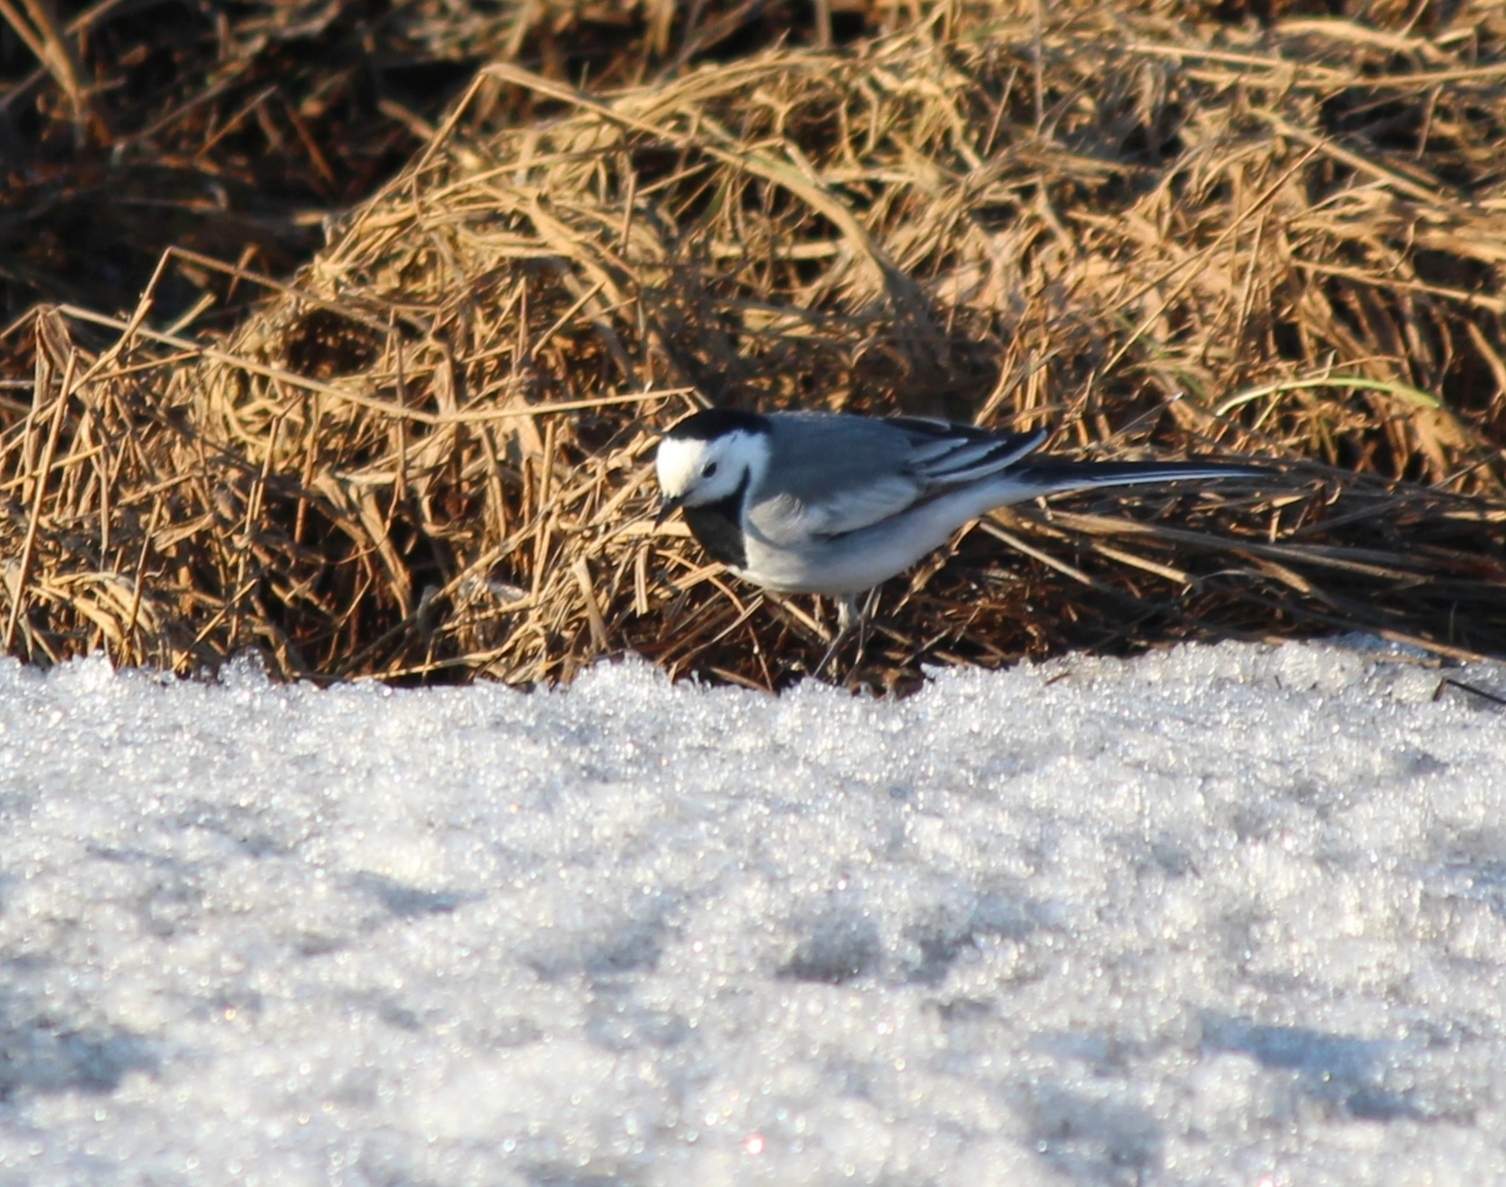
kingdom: Animalia
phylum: Chordata
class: Aves
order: Passeriformes
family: Motacillidae
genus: Motacilla
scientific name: Motacilla alba
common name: White wagtail
